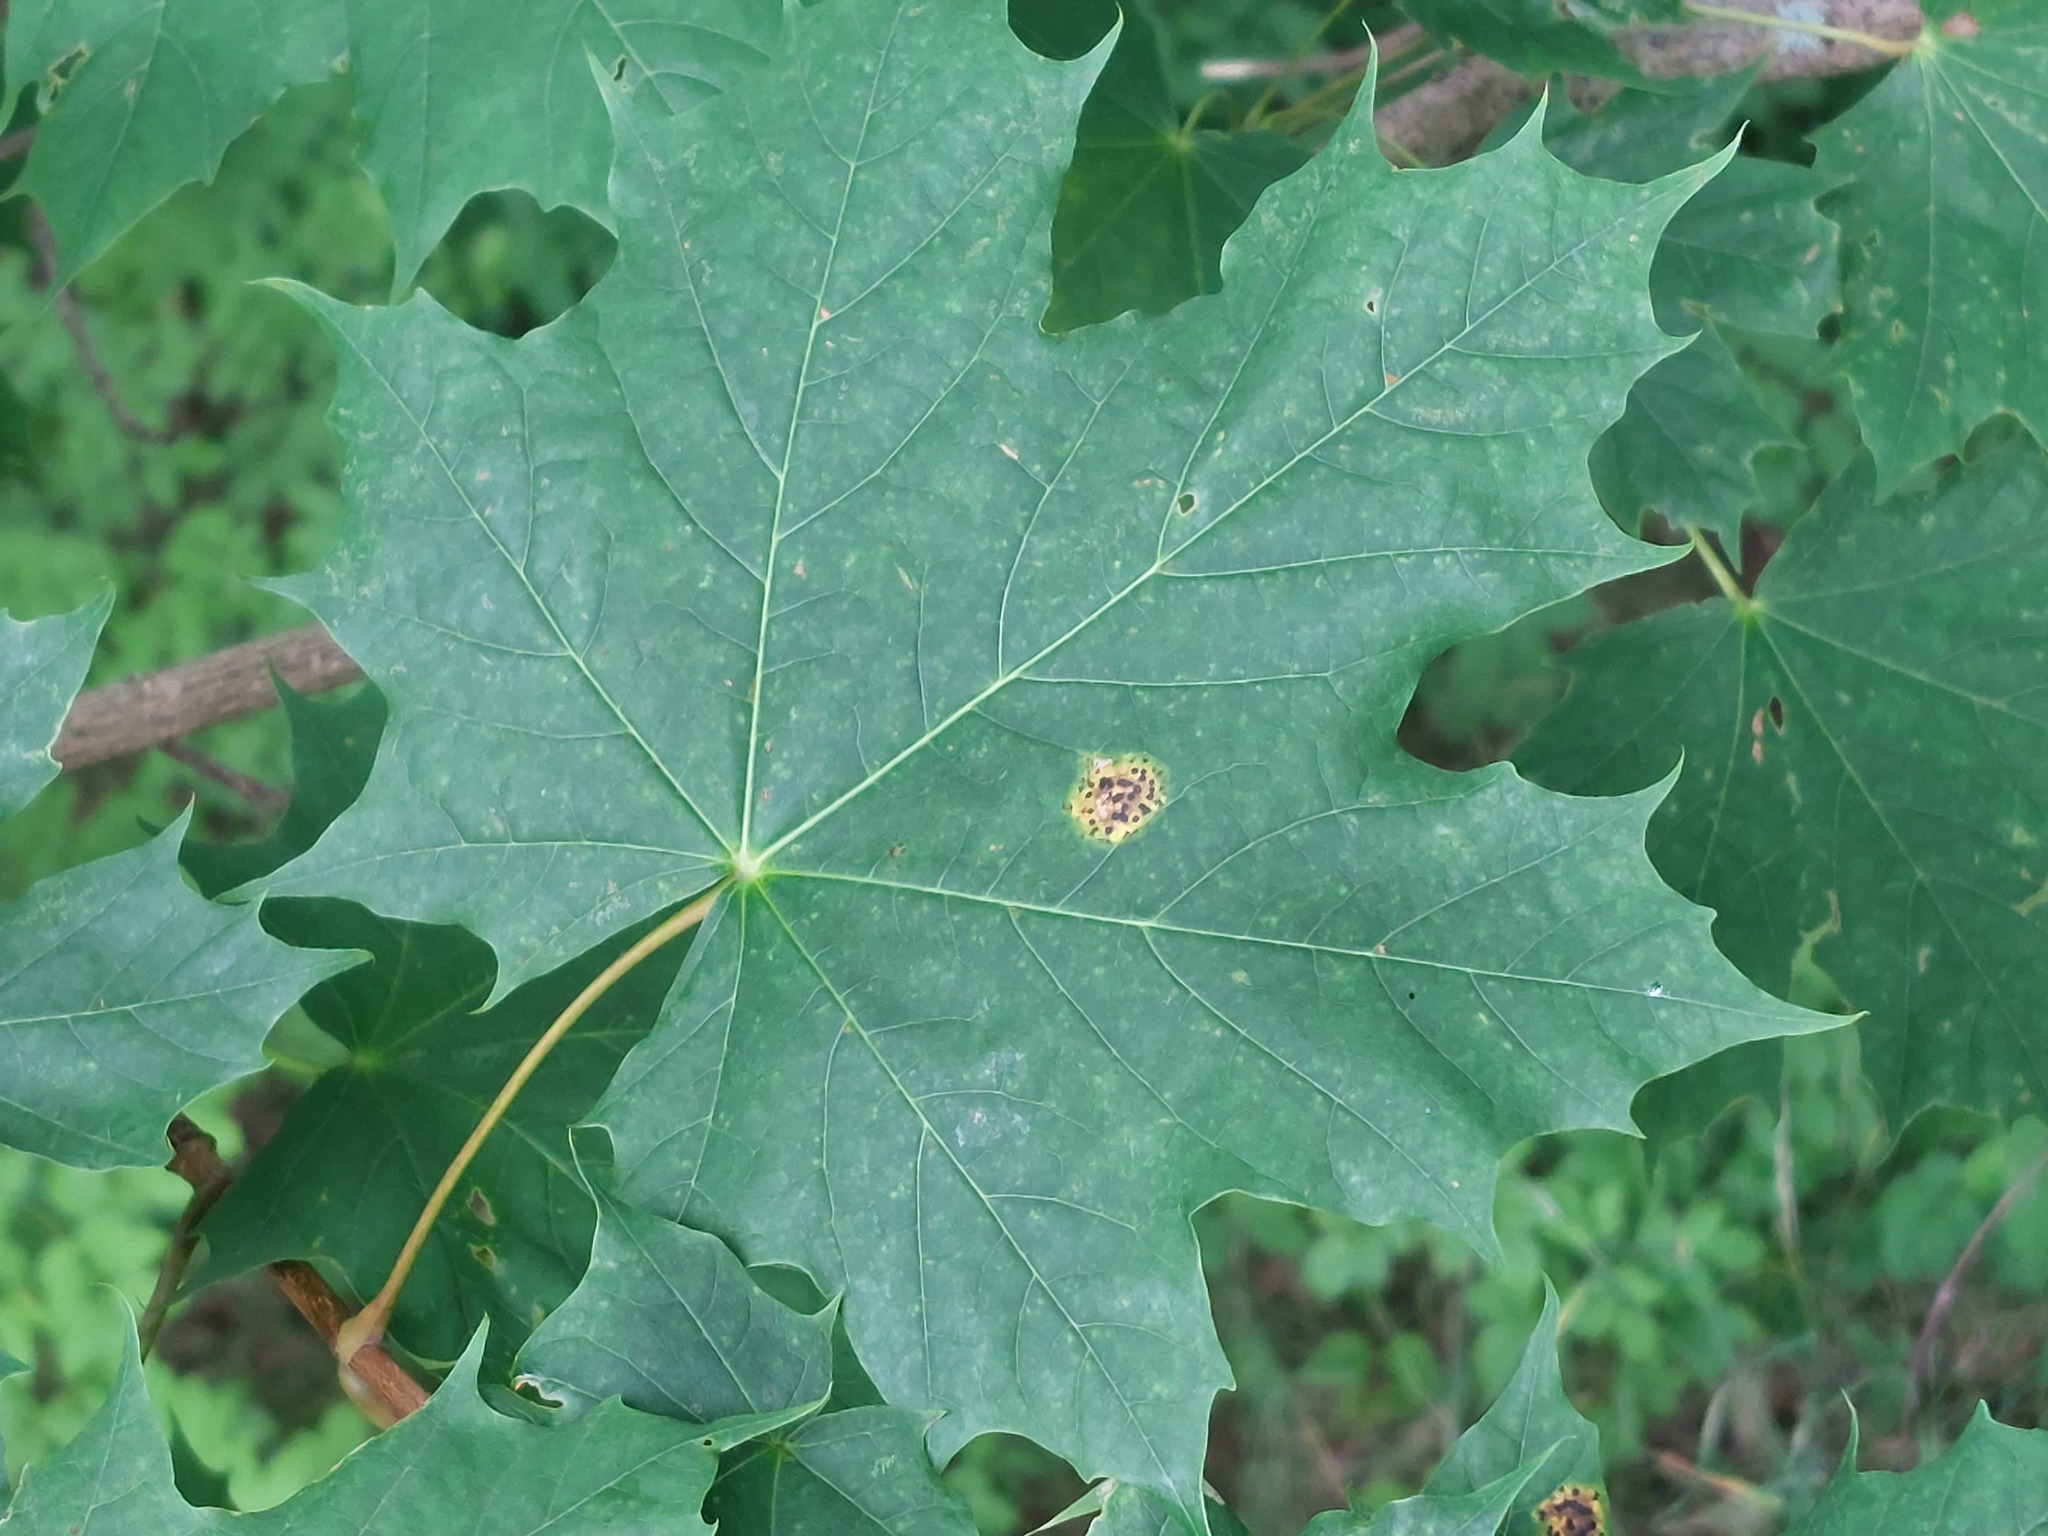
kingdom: Plantae
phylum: Tracheophyta
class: Magnoliopsida
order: Sapindales
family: Sapindaceae
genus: Acer
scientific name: Acer platanoides
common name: Norway maple
